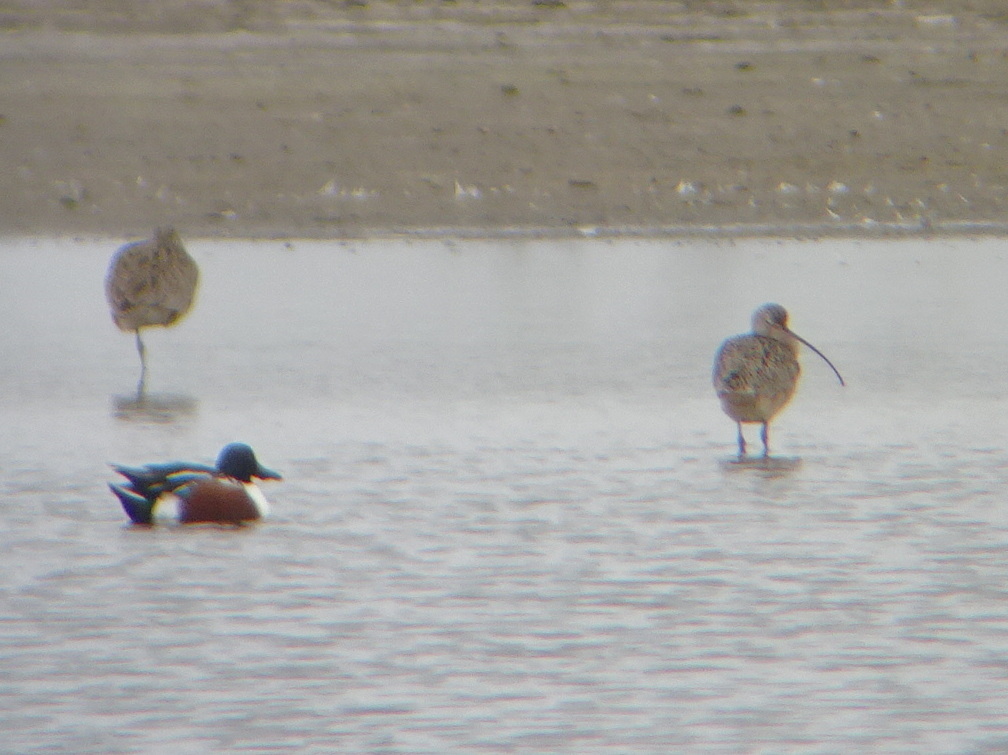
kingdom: Animalia
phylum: Chordata
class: Aves
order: Charadriiformes
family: Scolopacidae
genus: Numenius
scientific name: Numenius americanus
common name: Long-billed curlew
